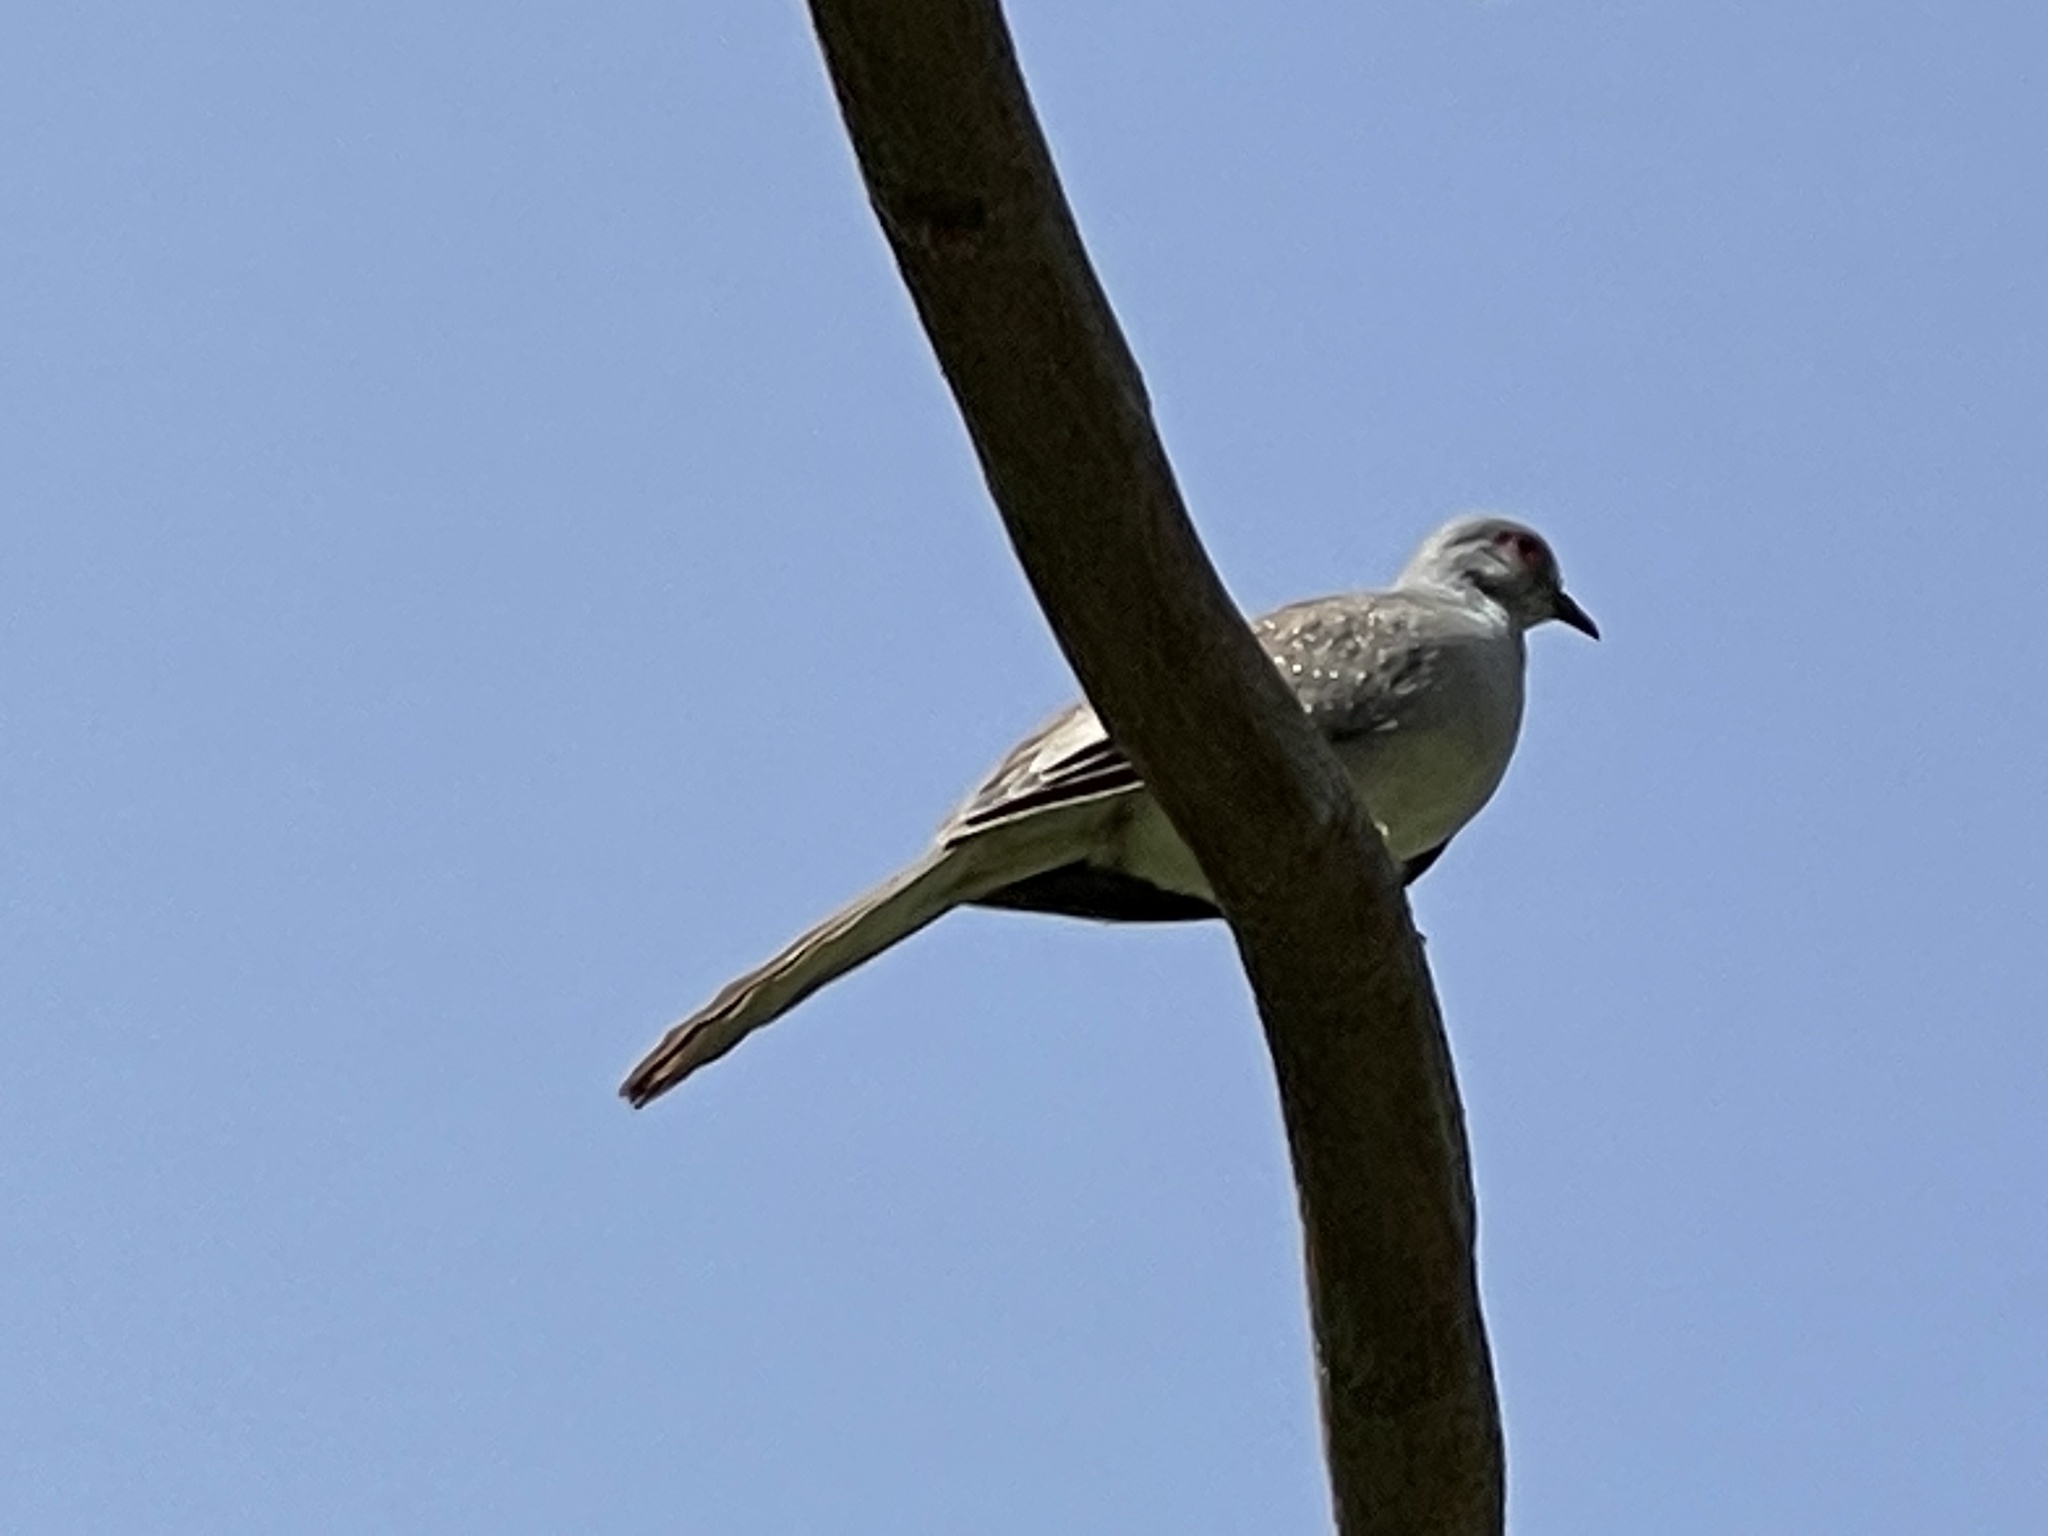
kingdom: Animalia
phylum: Chordata
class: Aves
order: Columbiformes
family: Columbidae
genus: Geopelia
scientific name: Geopelia cuneata
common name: Diamond dove
